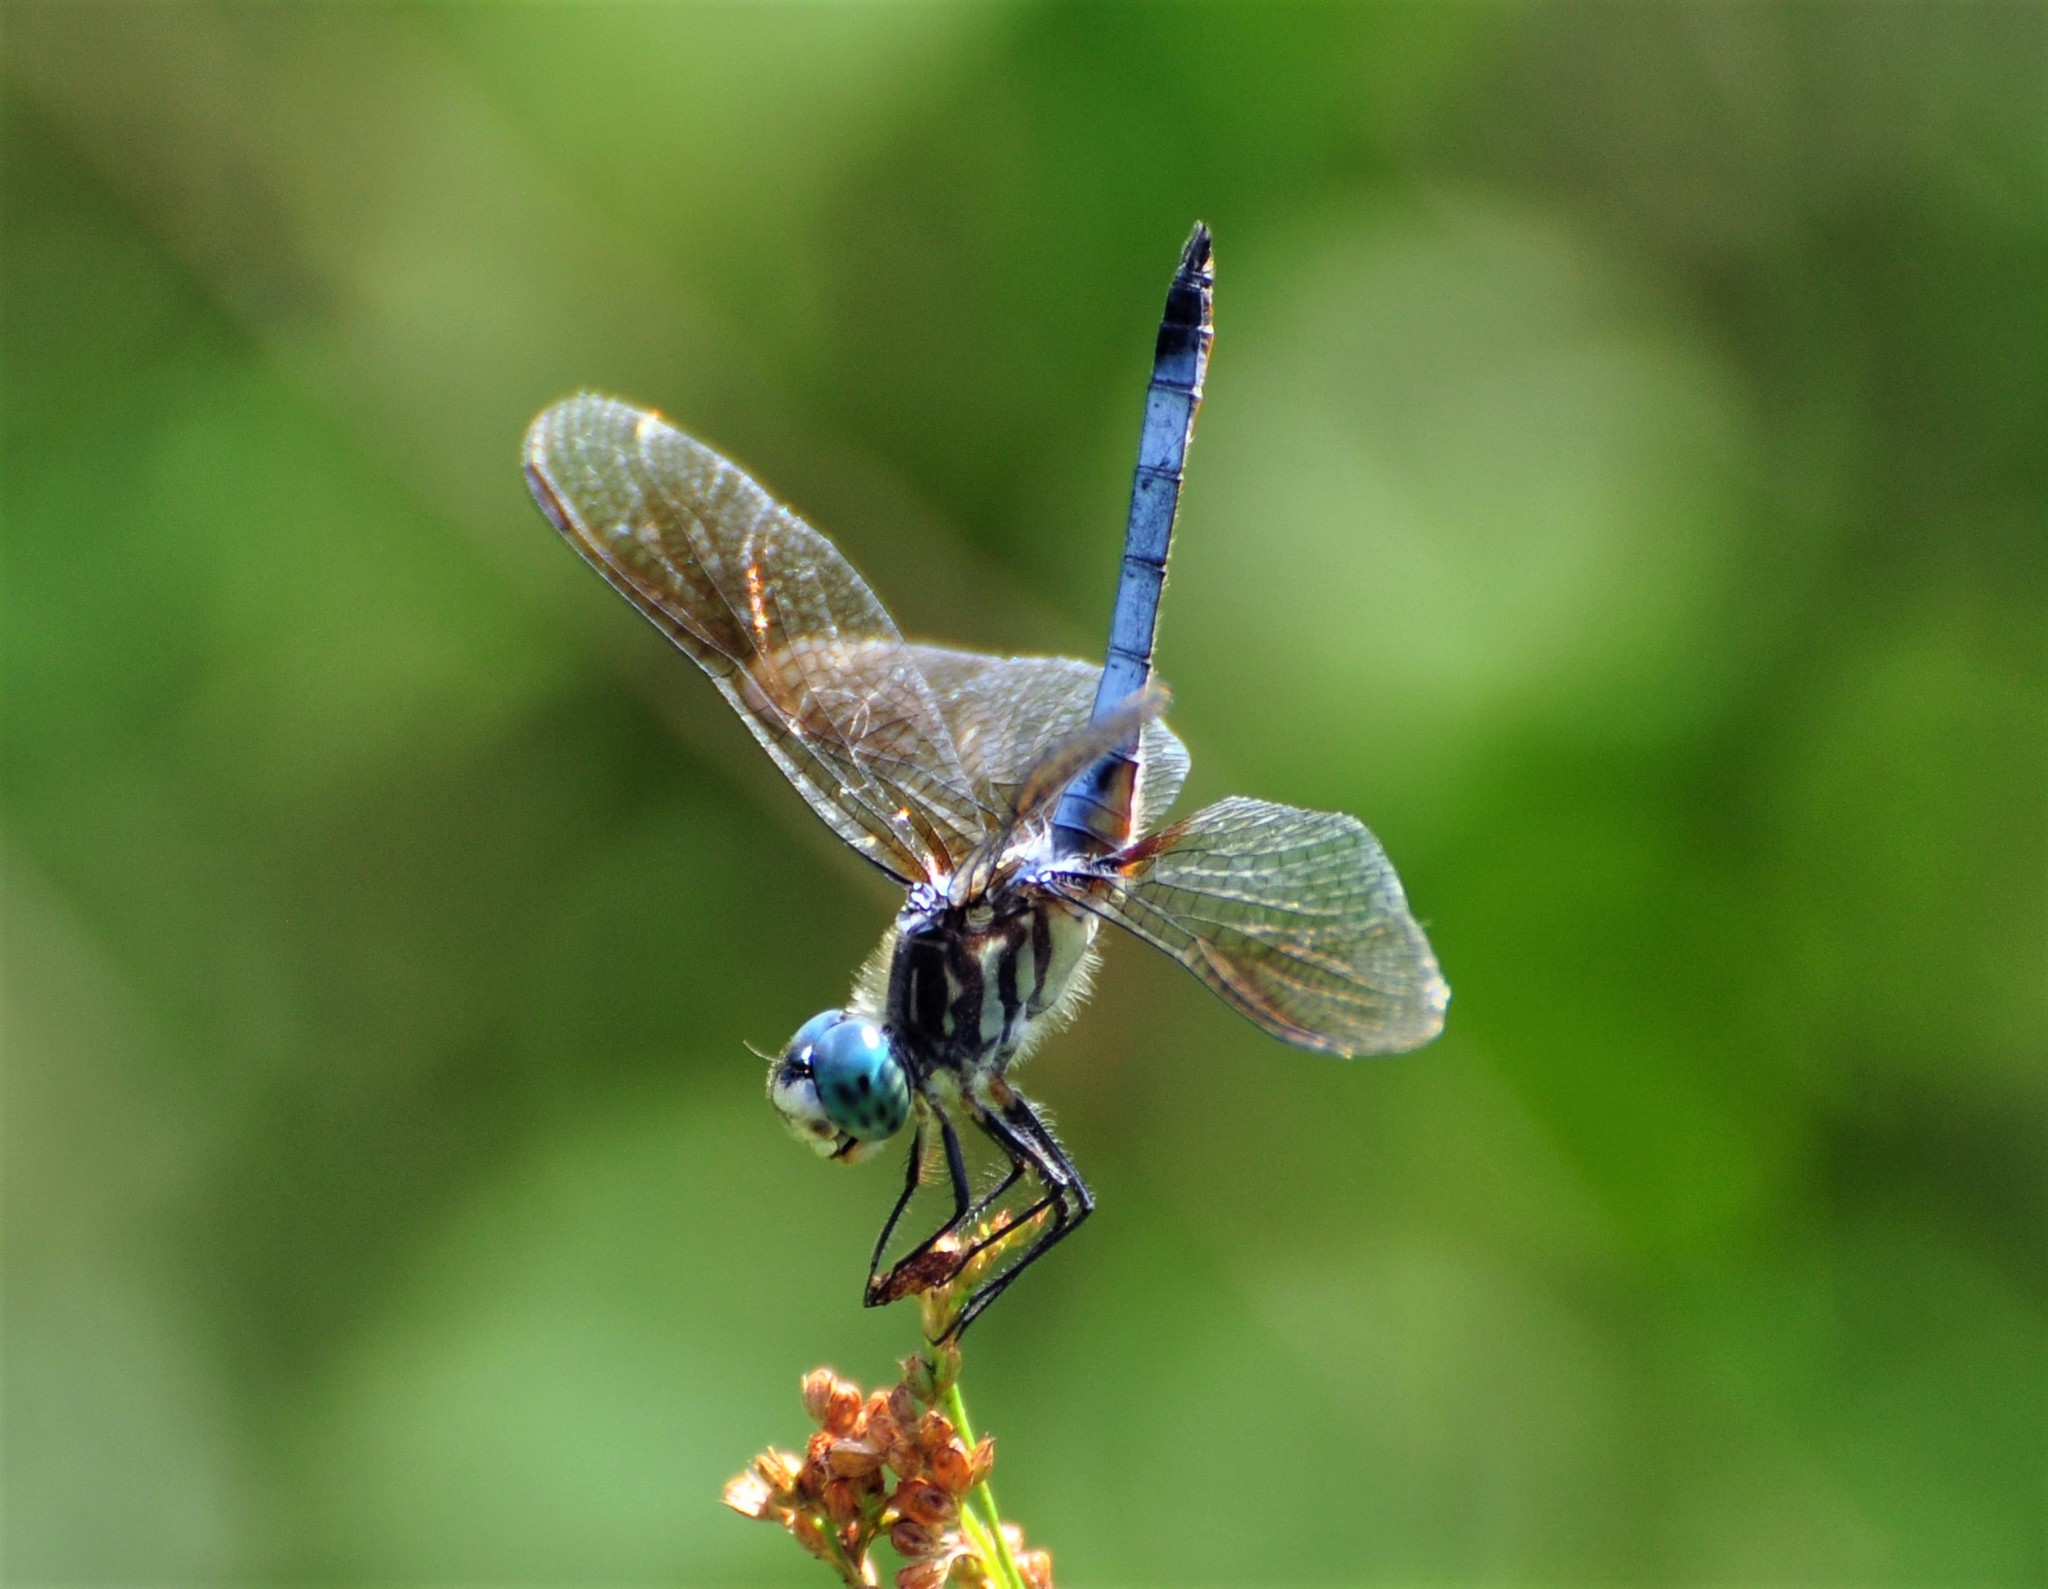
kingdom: Animalia
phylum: Arthropoda
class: Insecta
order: Odonata
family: Libellulidae
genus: Pachydiplax
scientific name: Pachydiplax longipennis
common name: Blue dasher
